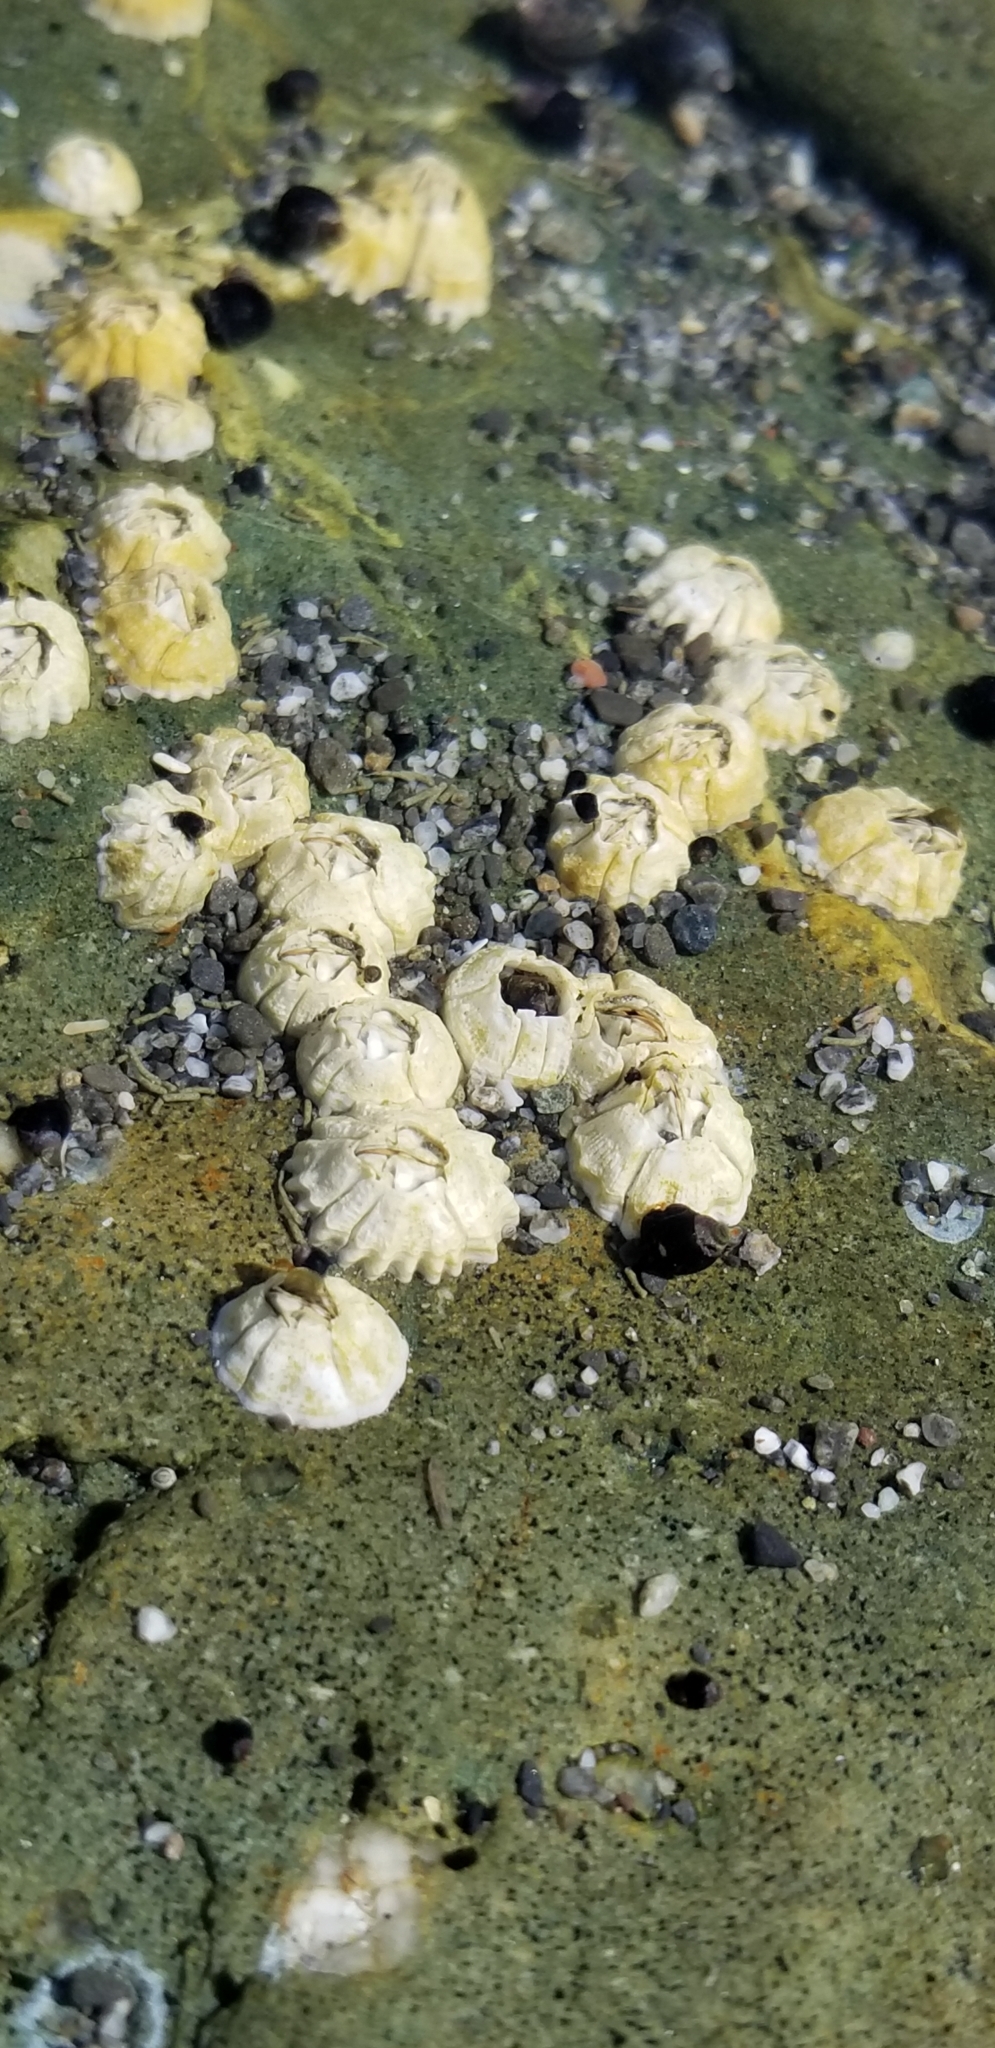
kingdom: Animalia
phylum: Arthropoda
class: Maxillopoda
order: Sessilia
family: Balanidae
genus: Balanus
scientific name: Balanus glandula
